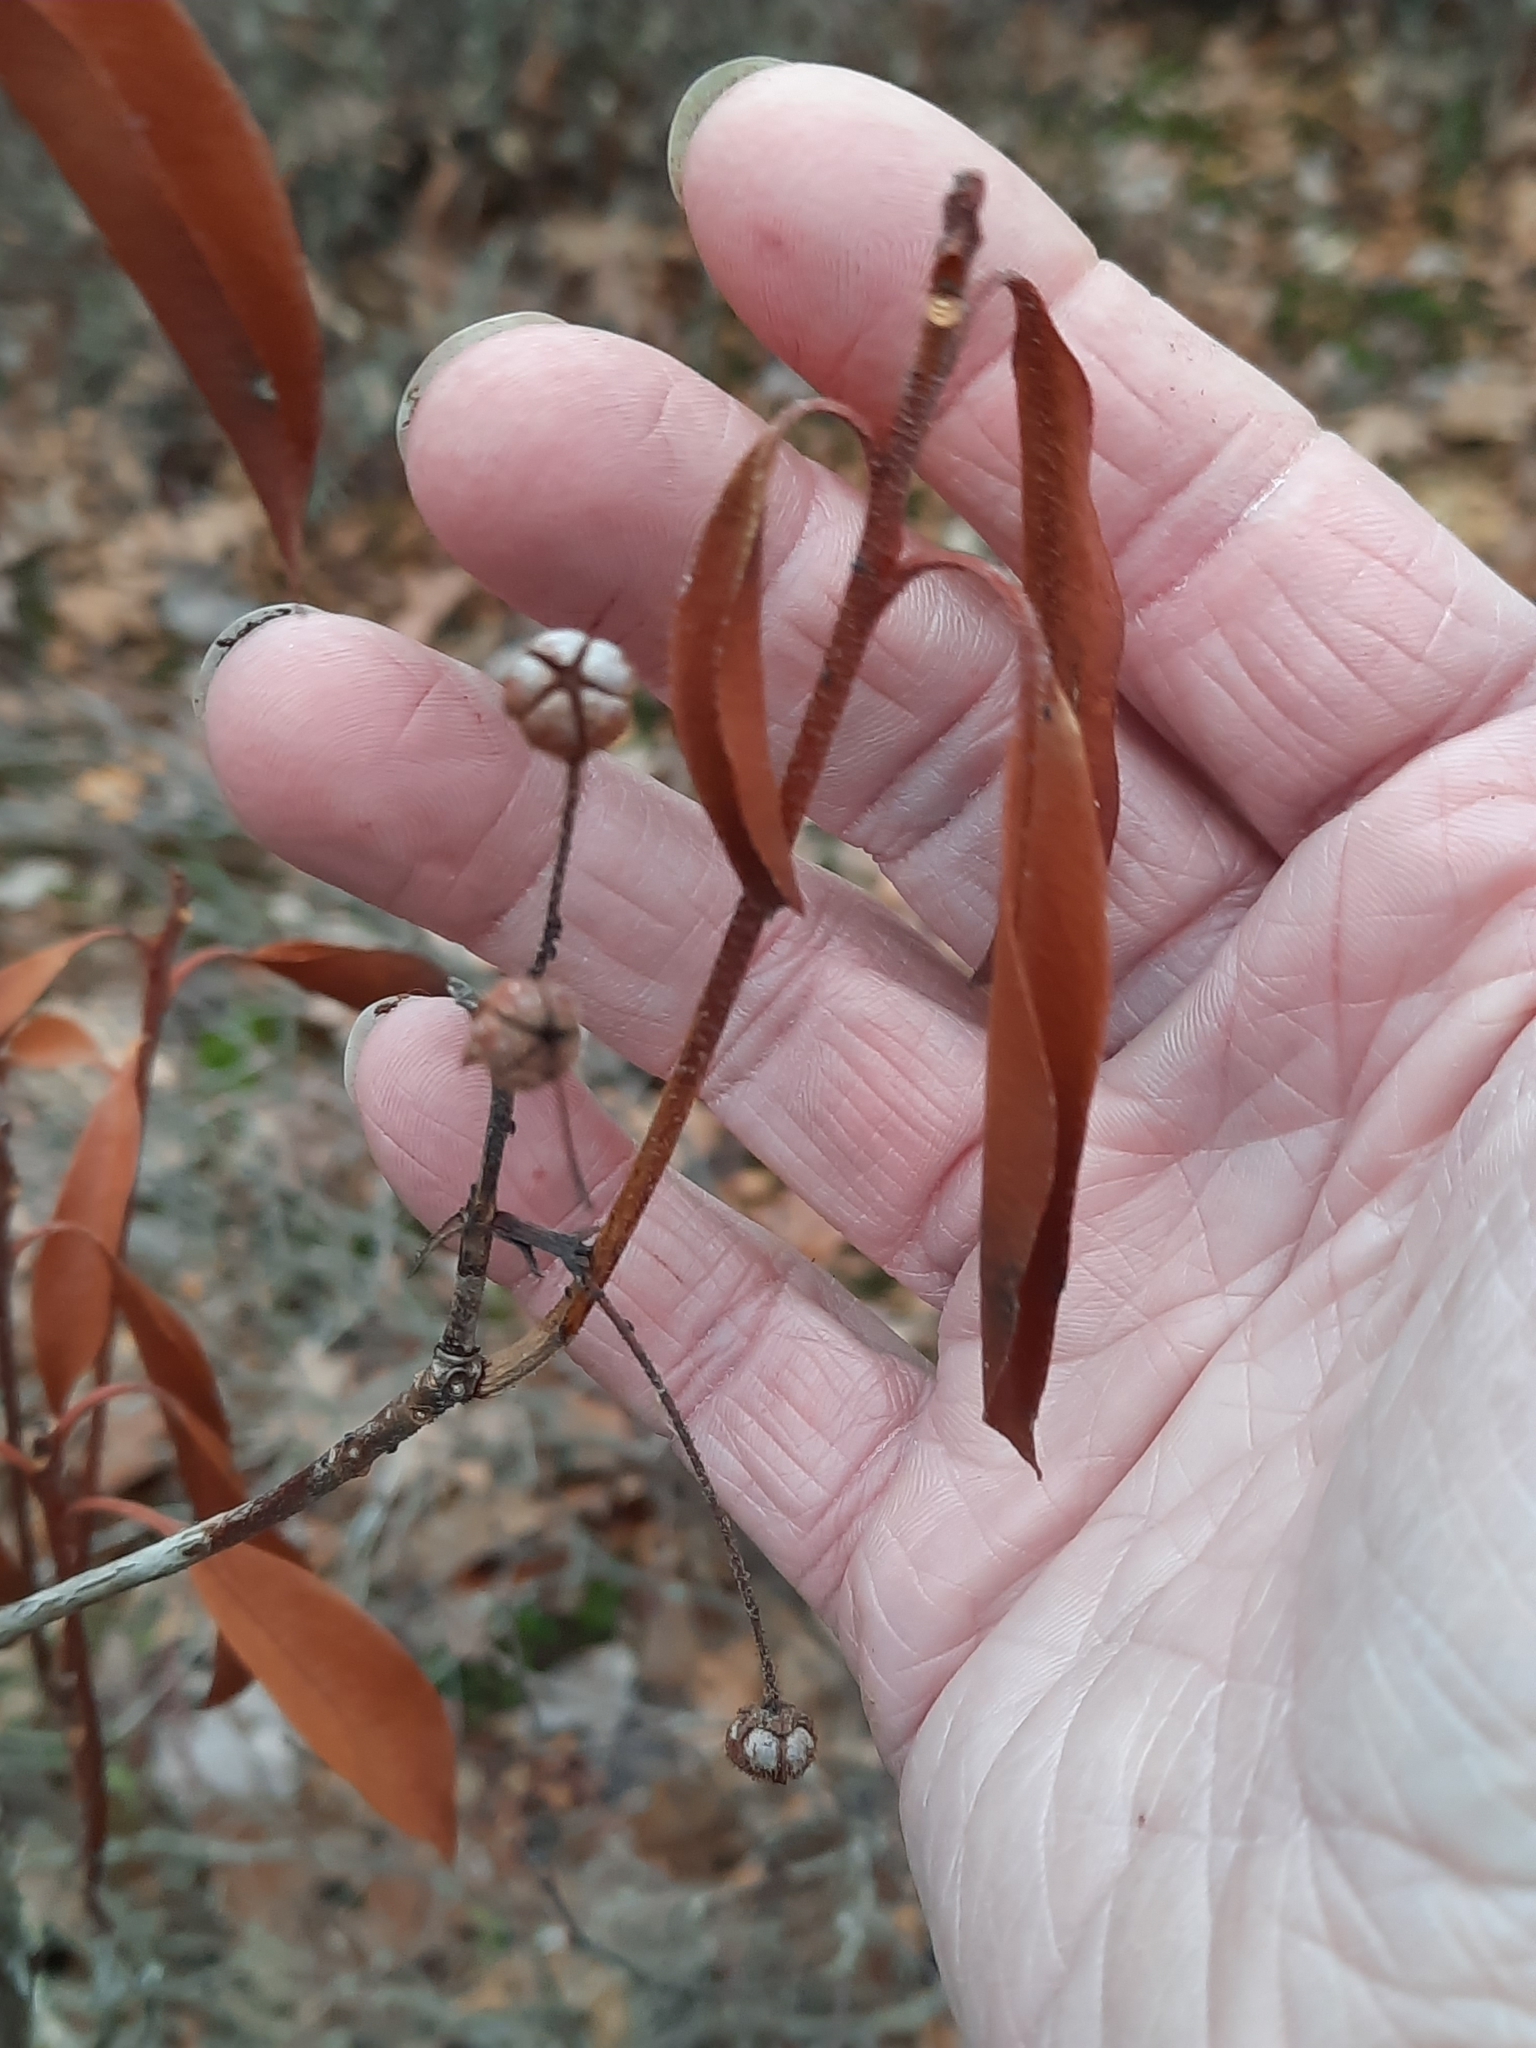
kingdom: Plantae
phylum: Tracheophyta
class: Magnoliopsida
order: Ericales
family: Ericaceae
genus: Kalmia
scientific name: Kalmia latifolia
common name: Mountain-laurel
